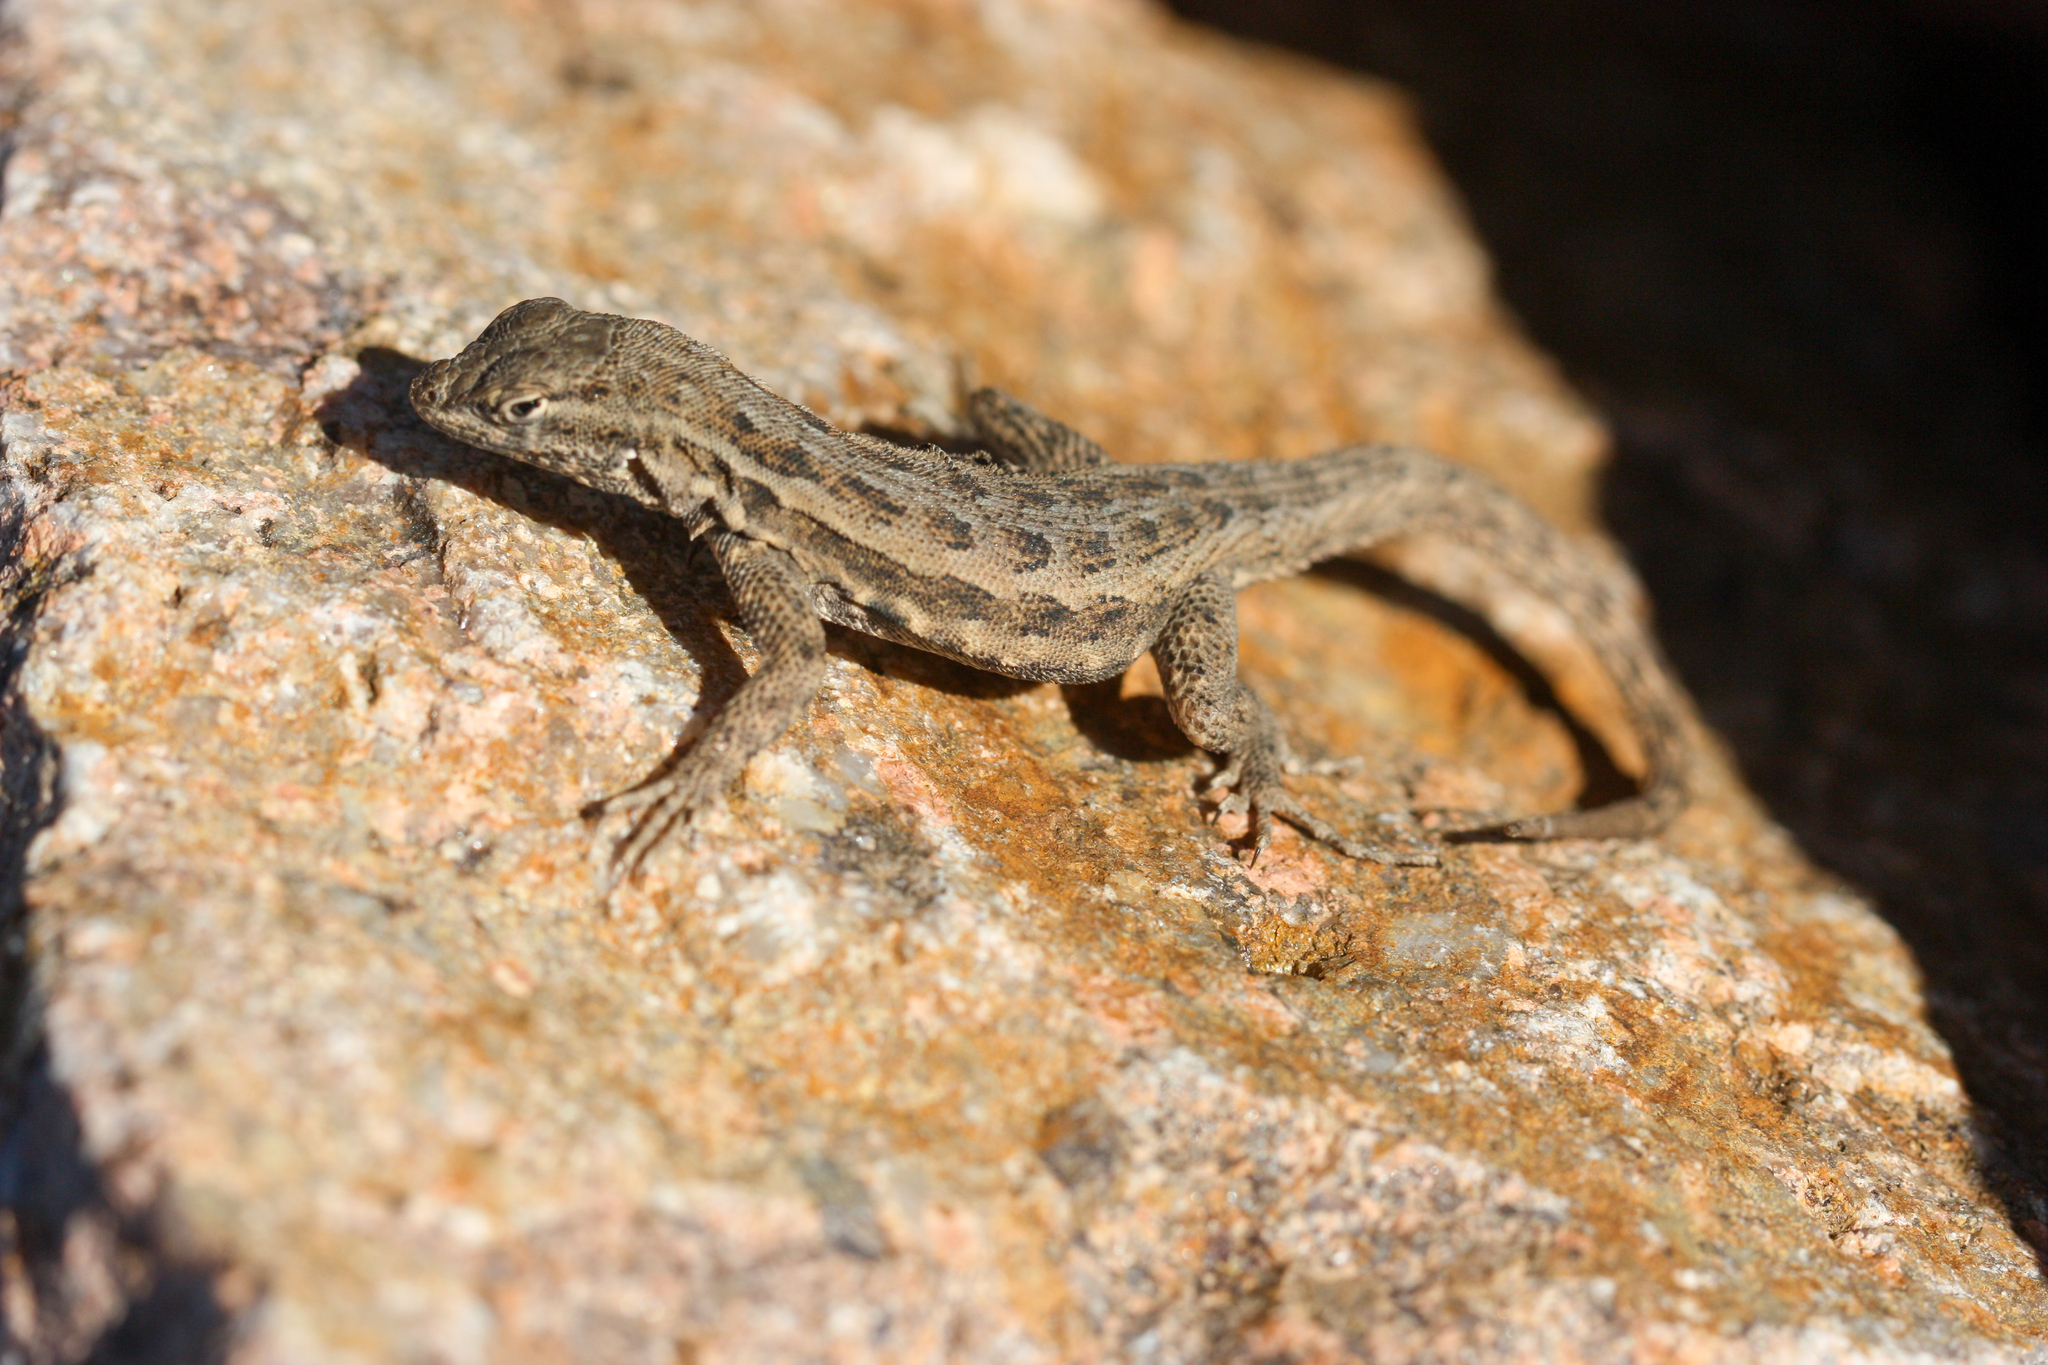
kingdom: Animalia
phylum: Chordata
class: Squamata
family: Phrynosomatidae
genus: Uta
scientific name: Uta stansburiana
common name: Side-blotched lizard
